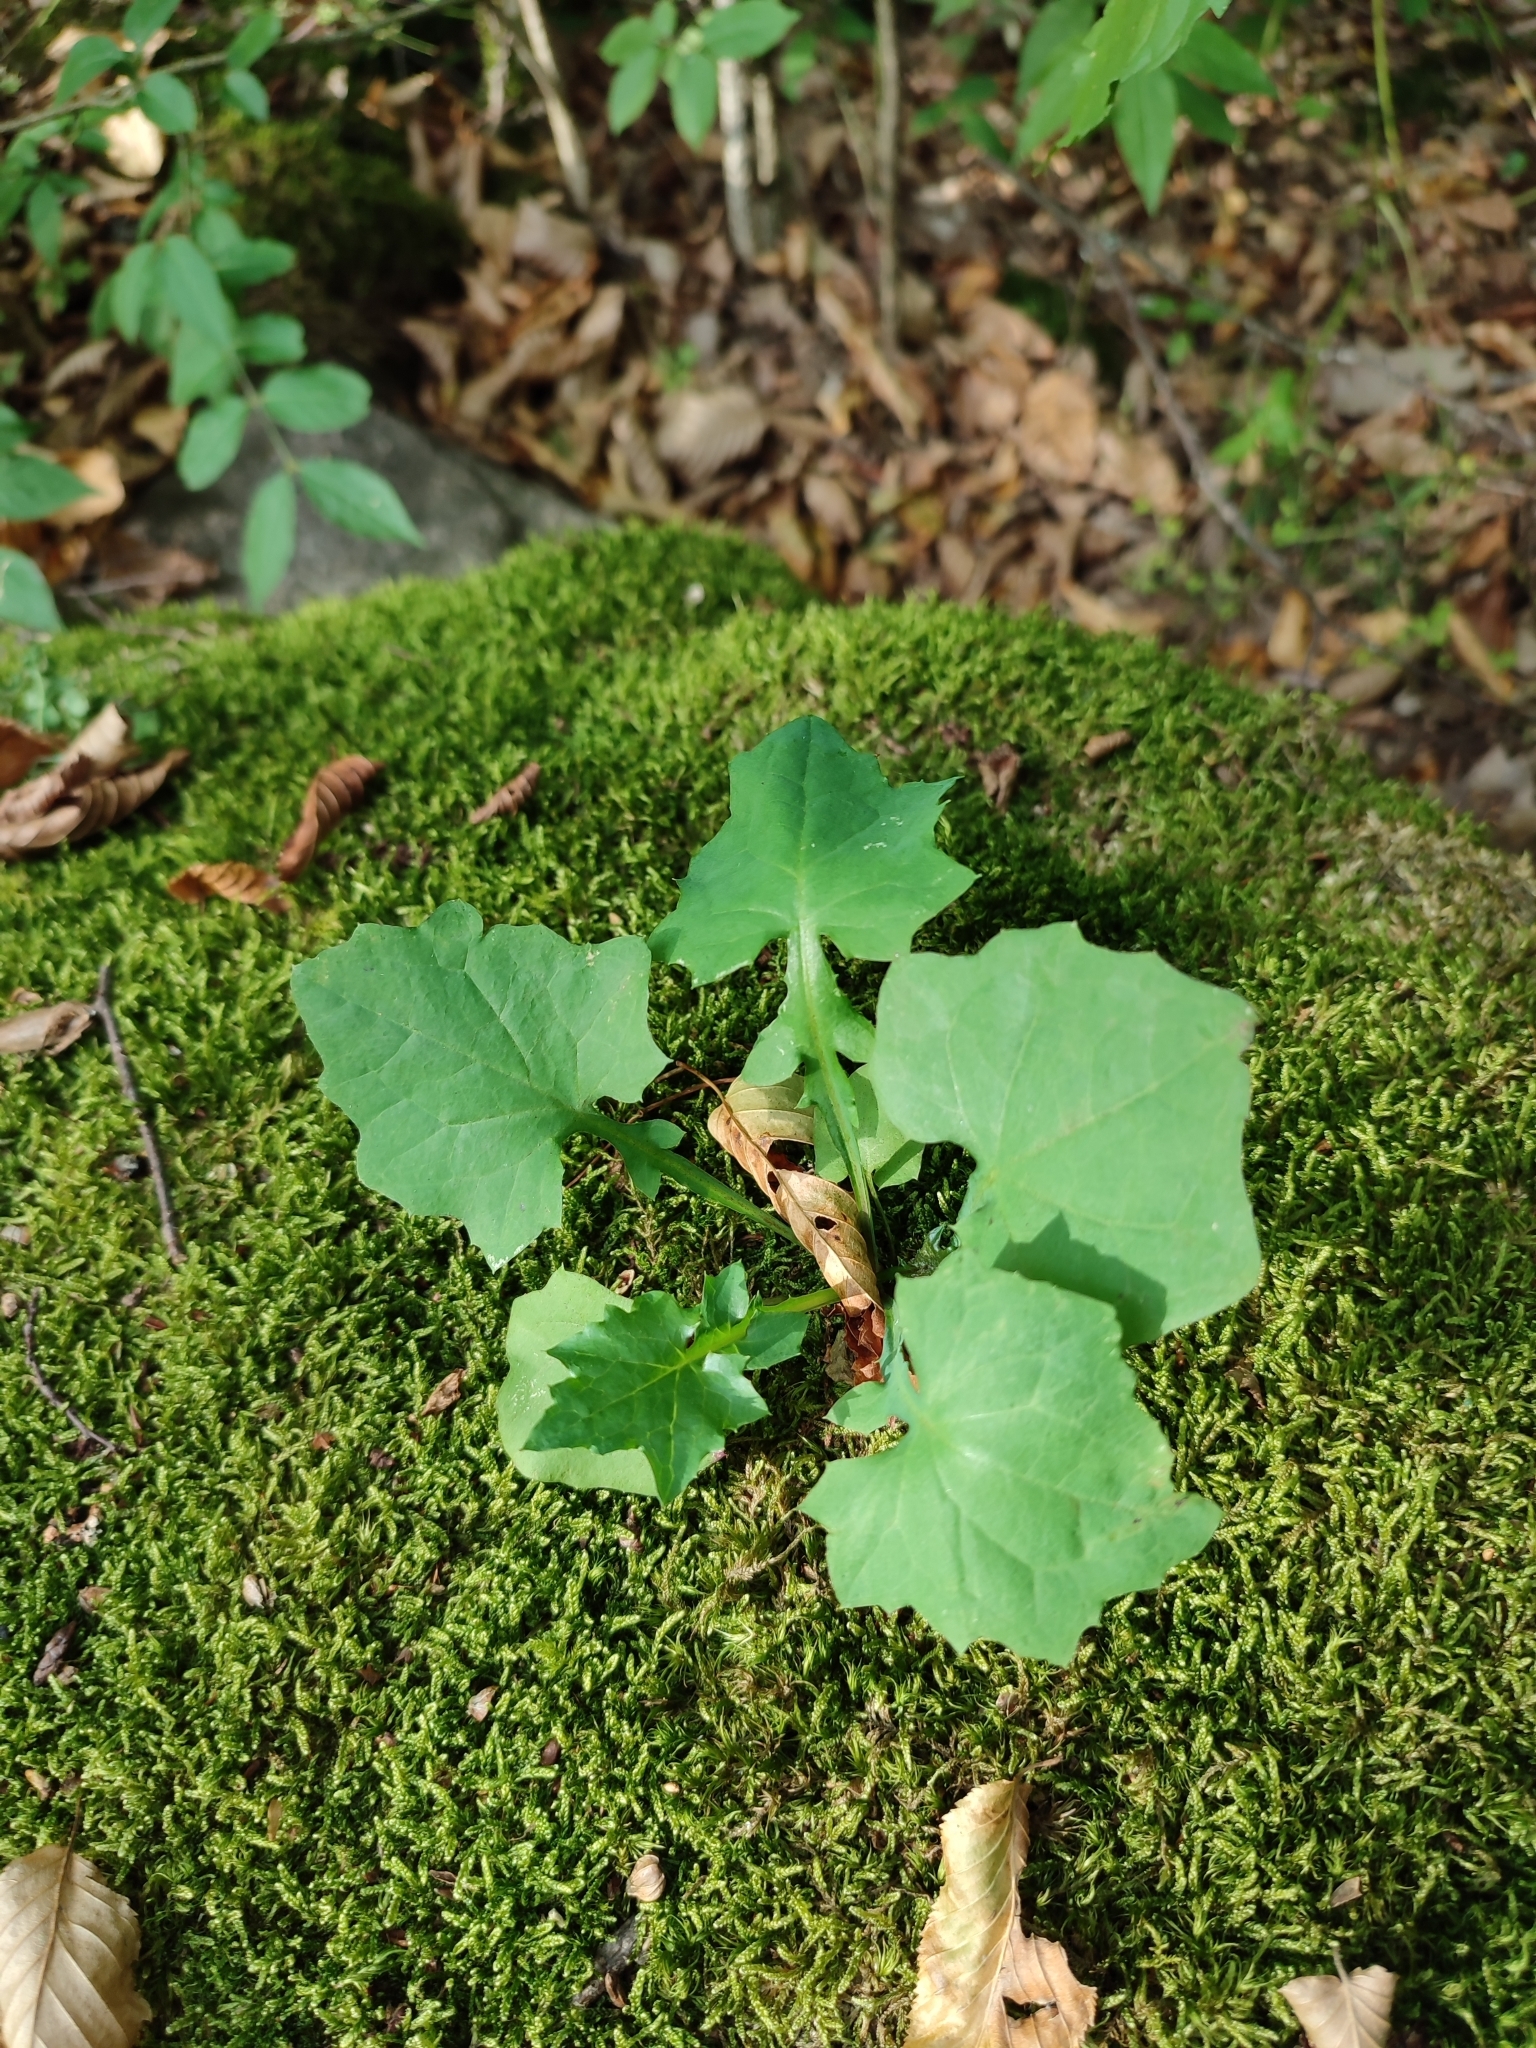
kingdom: Plantae
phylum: Tracheophyta
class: Magnoliopsida
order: Asterales
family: Asteraceae
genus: Mycelis
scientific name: Mycelis muralis
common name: Wall lettuce
